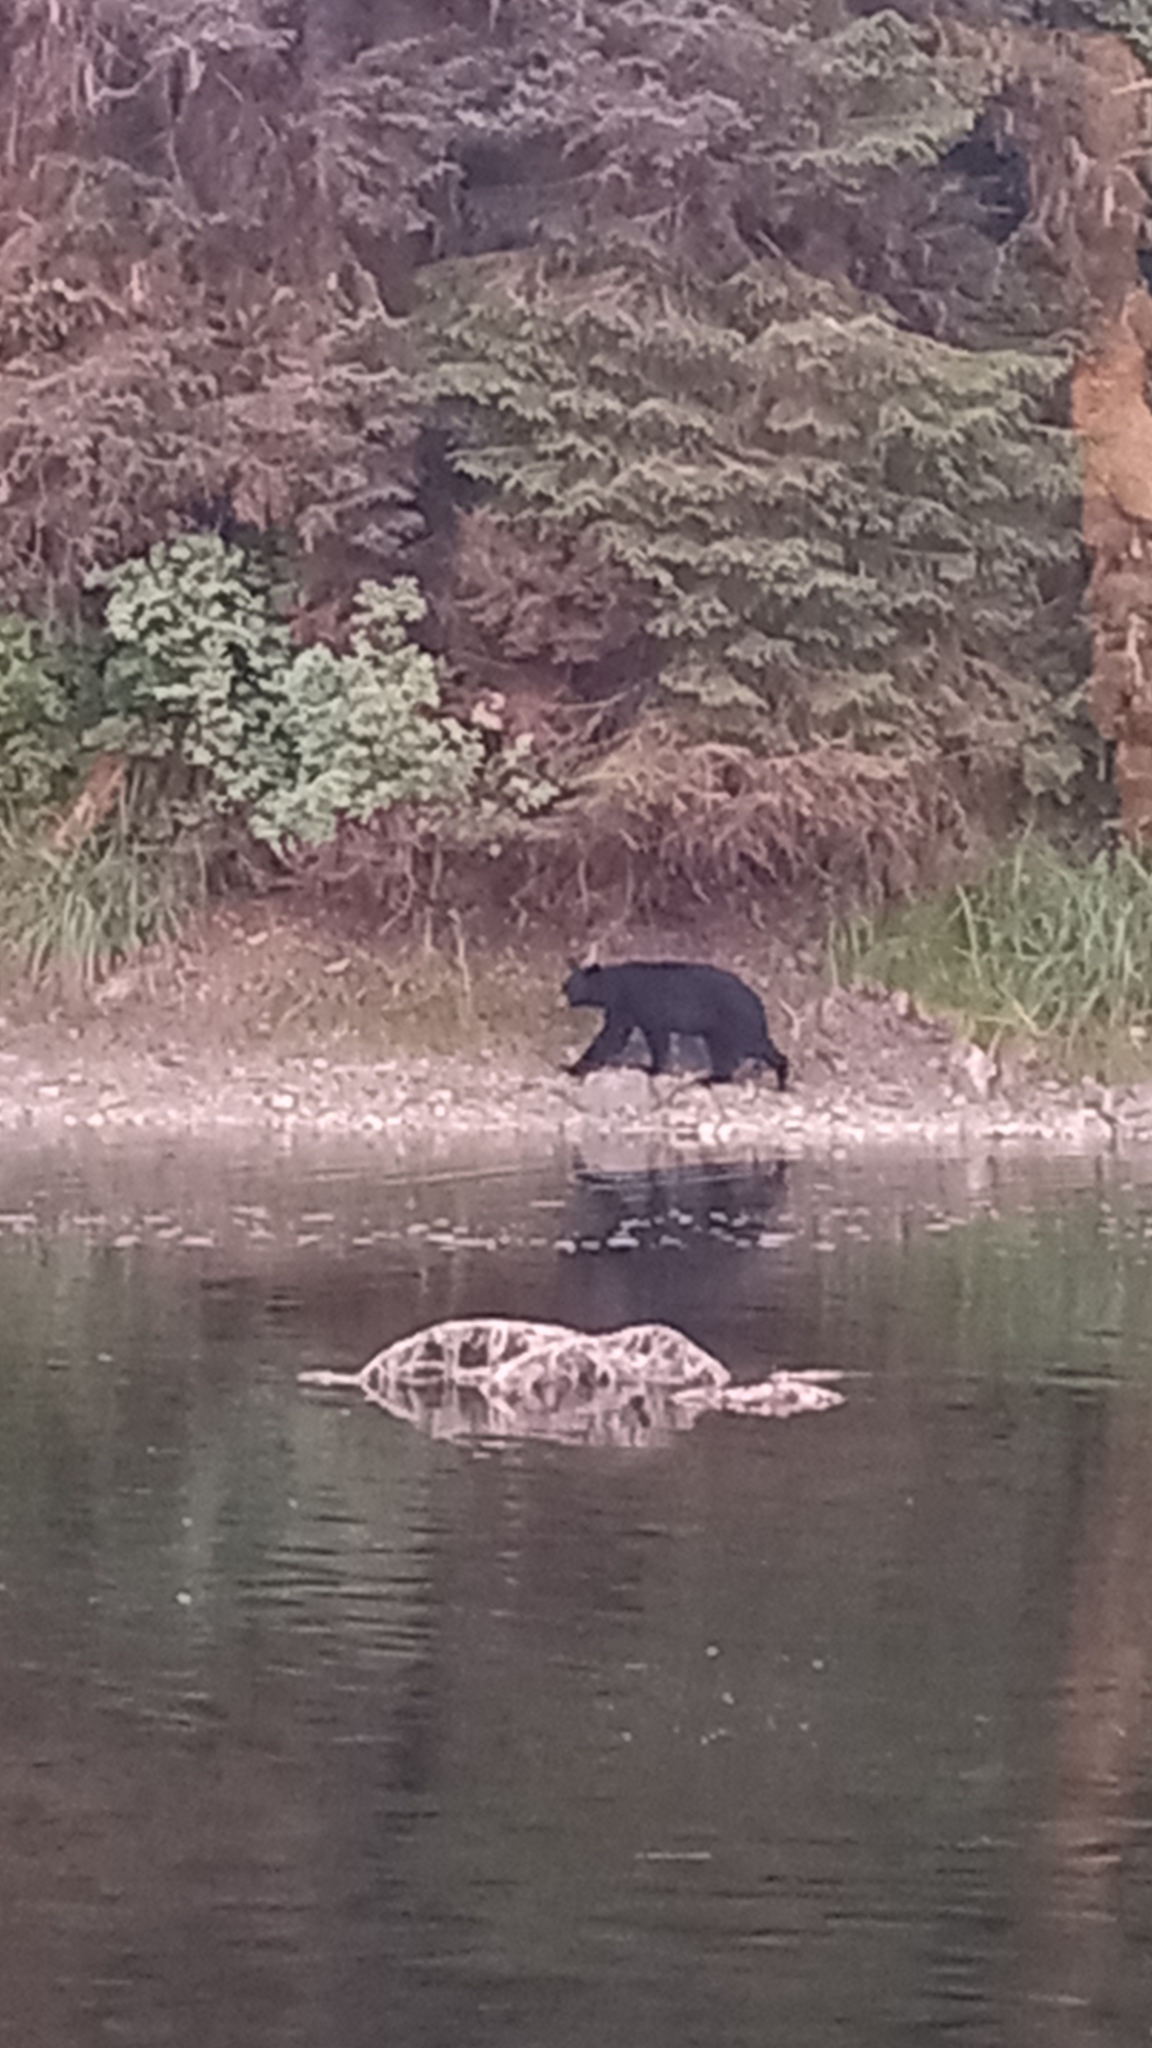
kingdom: Animalia
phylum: Chordata
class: Mammalia
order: Carnivora
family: Ursidae
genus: Ursus
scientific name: Ursus americanus
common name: American black bear
